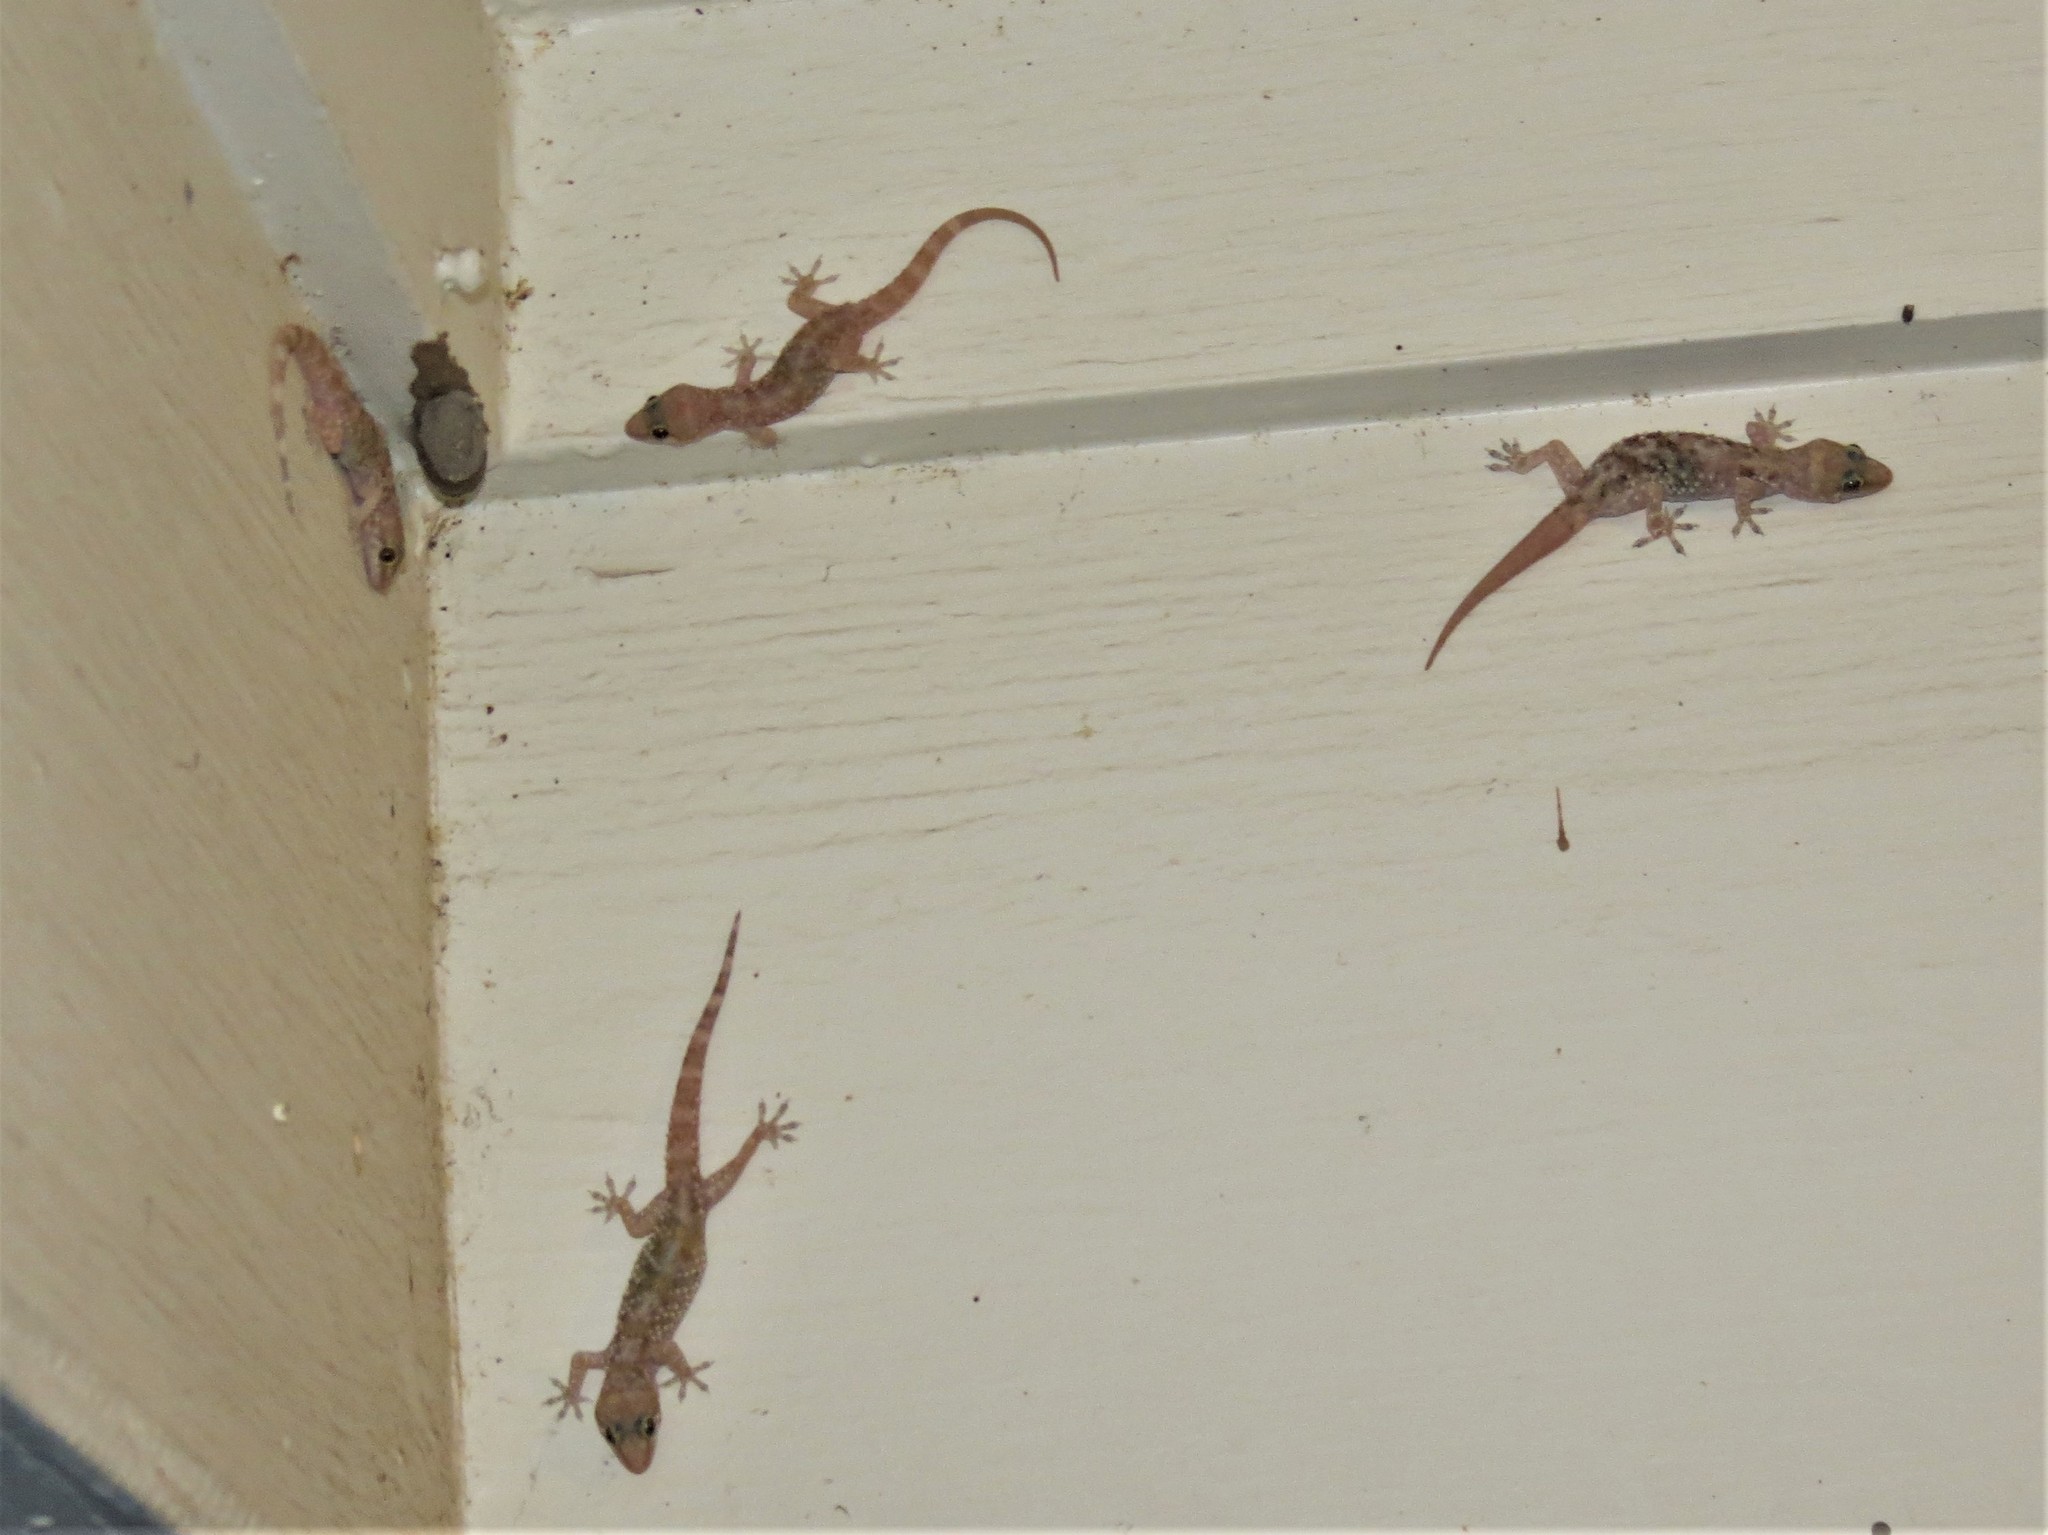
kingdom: Animalia
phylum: Chordata
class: Squamata
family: Gekkonidae
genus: Hemidactylus
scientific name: Hemidactylus turcicus
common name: Turkish gecko
